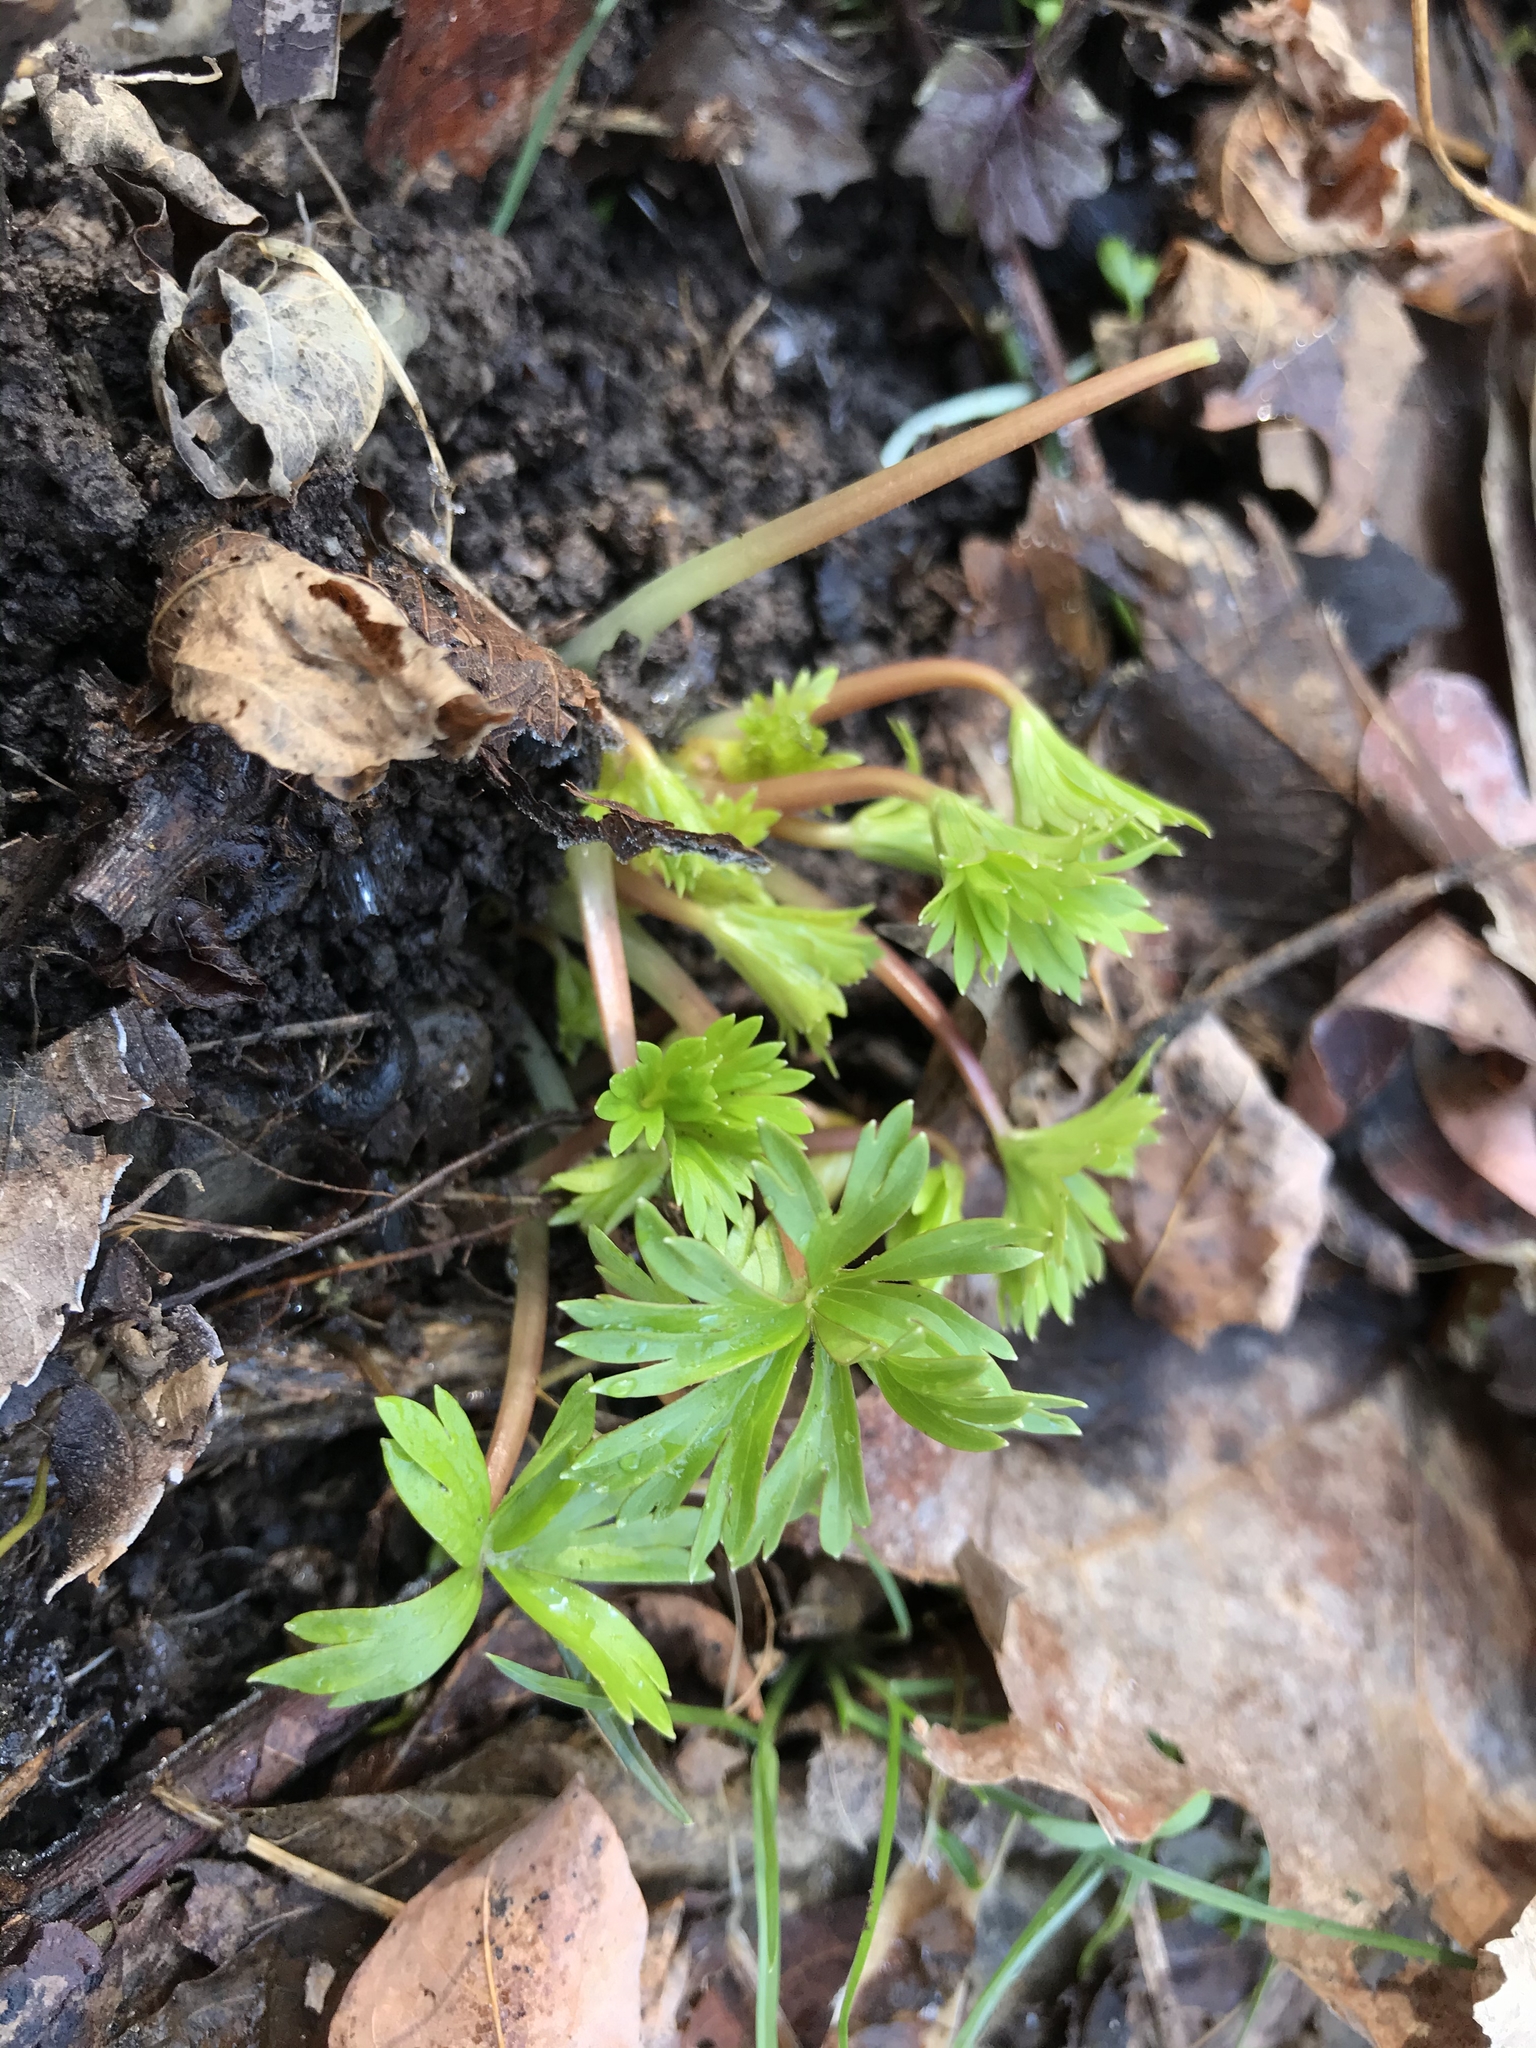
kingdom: Plantae
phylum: Tracheophyta
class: Magnoliopsida
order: Ranunculales
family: Ranunculaceae
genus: Delphinium
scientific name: Delphinium tricorne
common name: Dwarf larkspur
